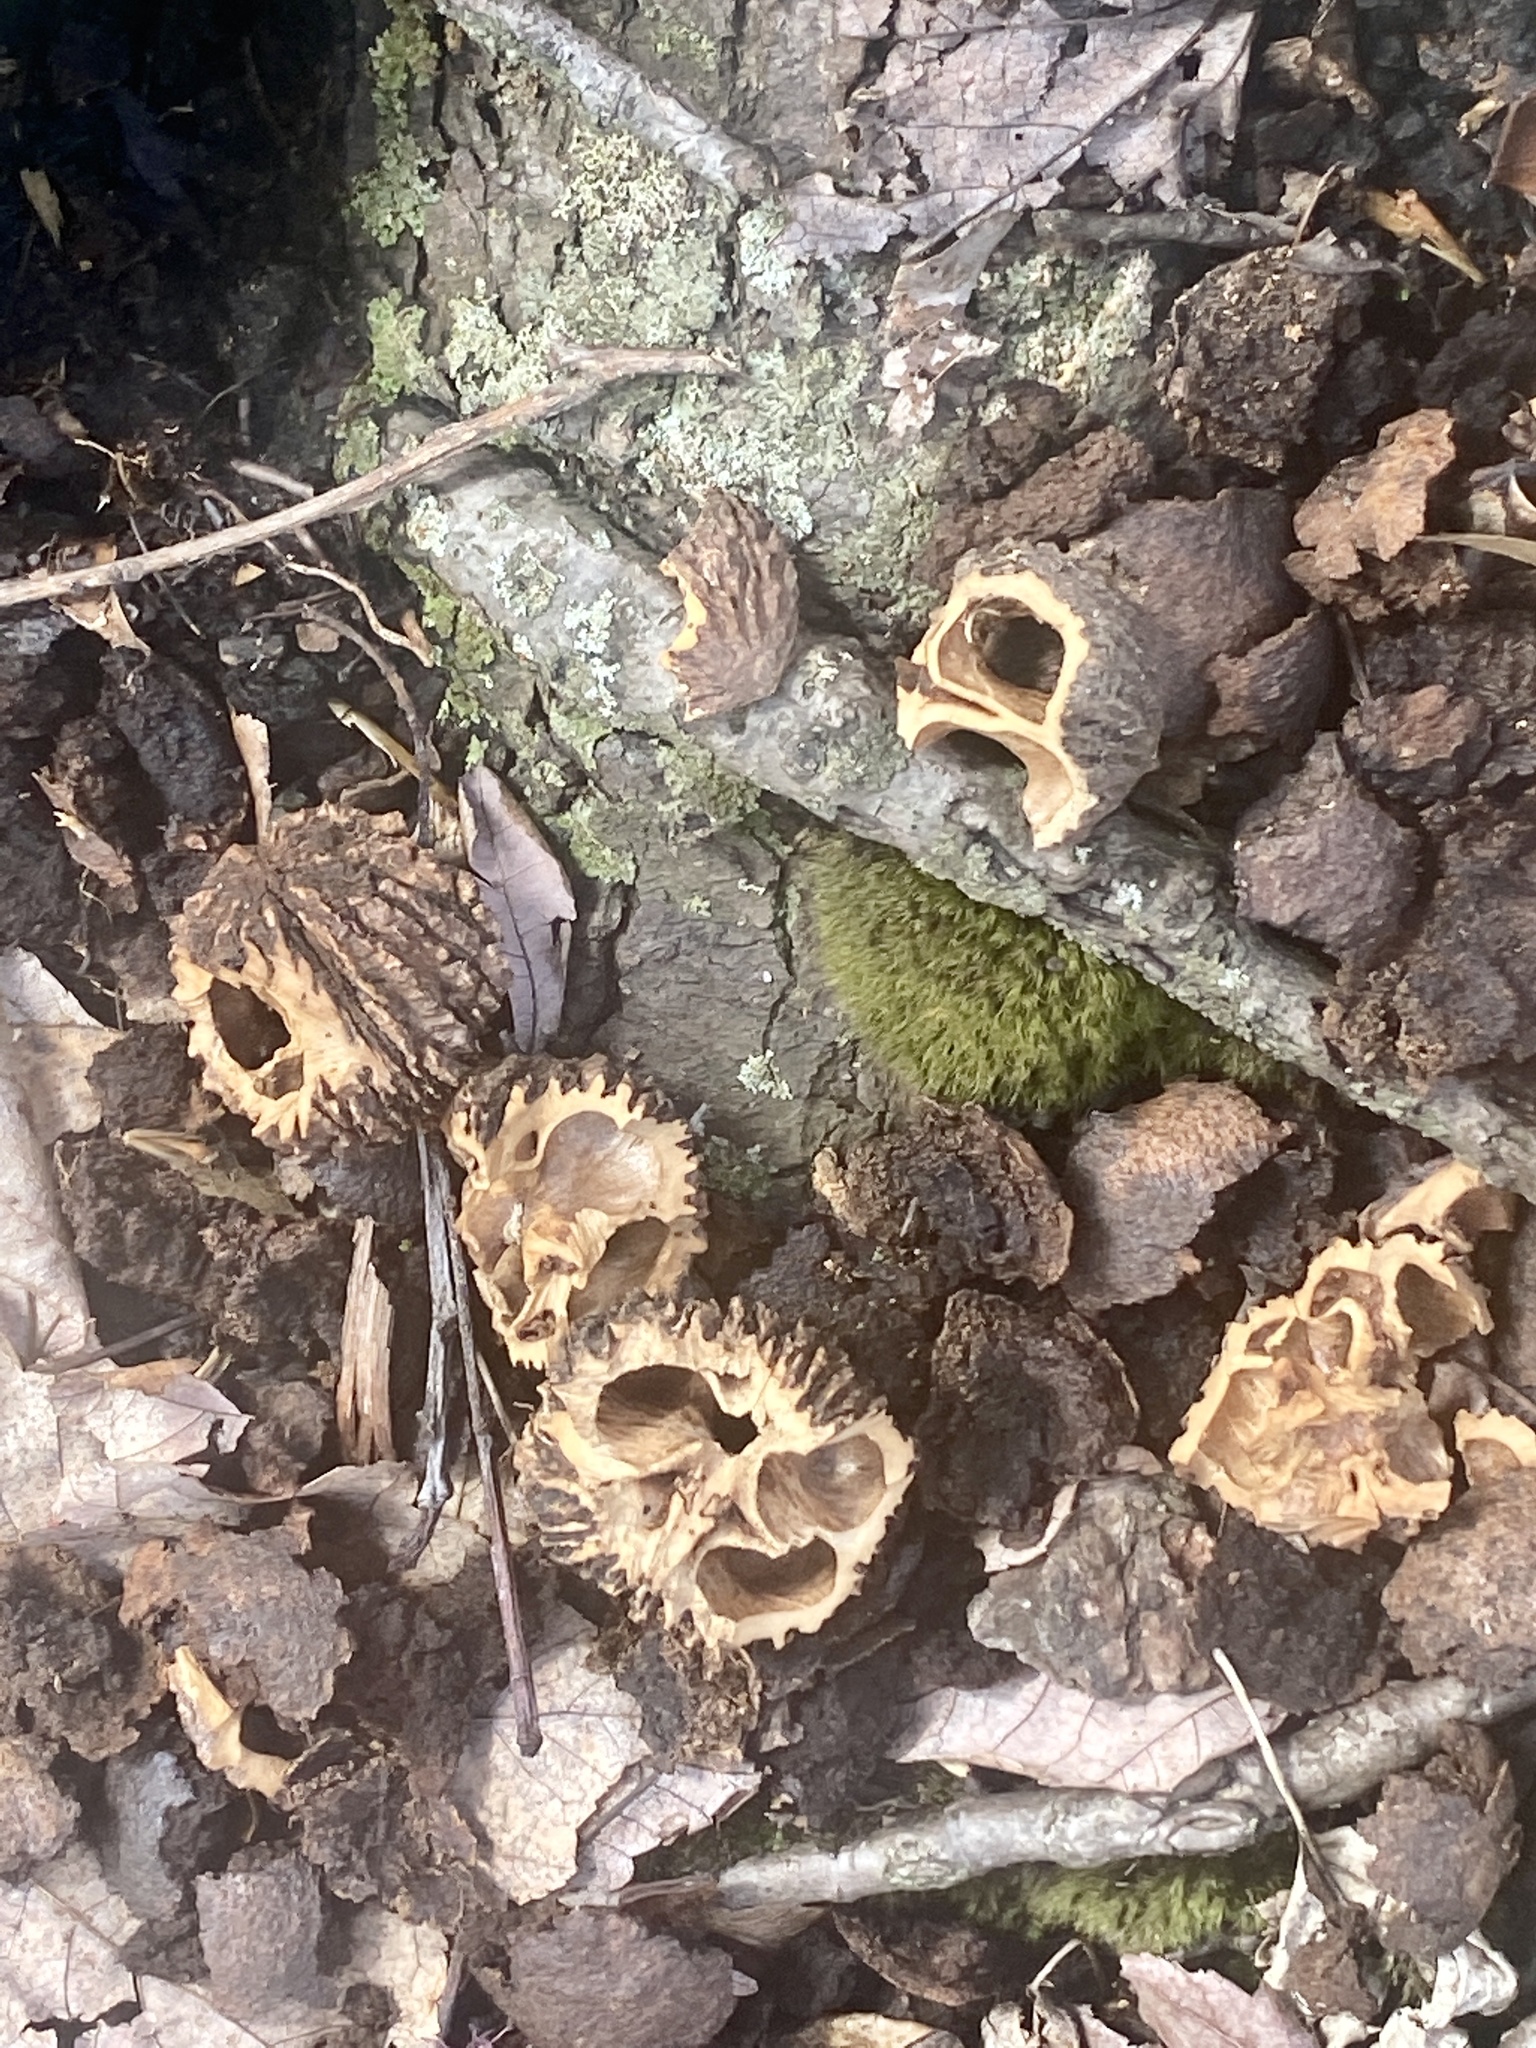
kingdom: Plantae
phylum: Tracheophyta
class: Magnoliopsida
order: Fagales
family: Juglandaceae
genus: Juglans
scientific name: Juglans nigra
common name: Black walnut
